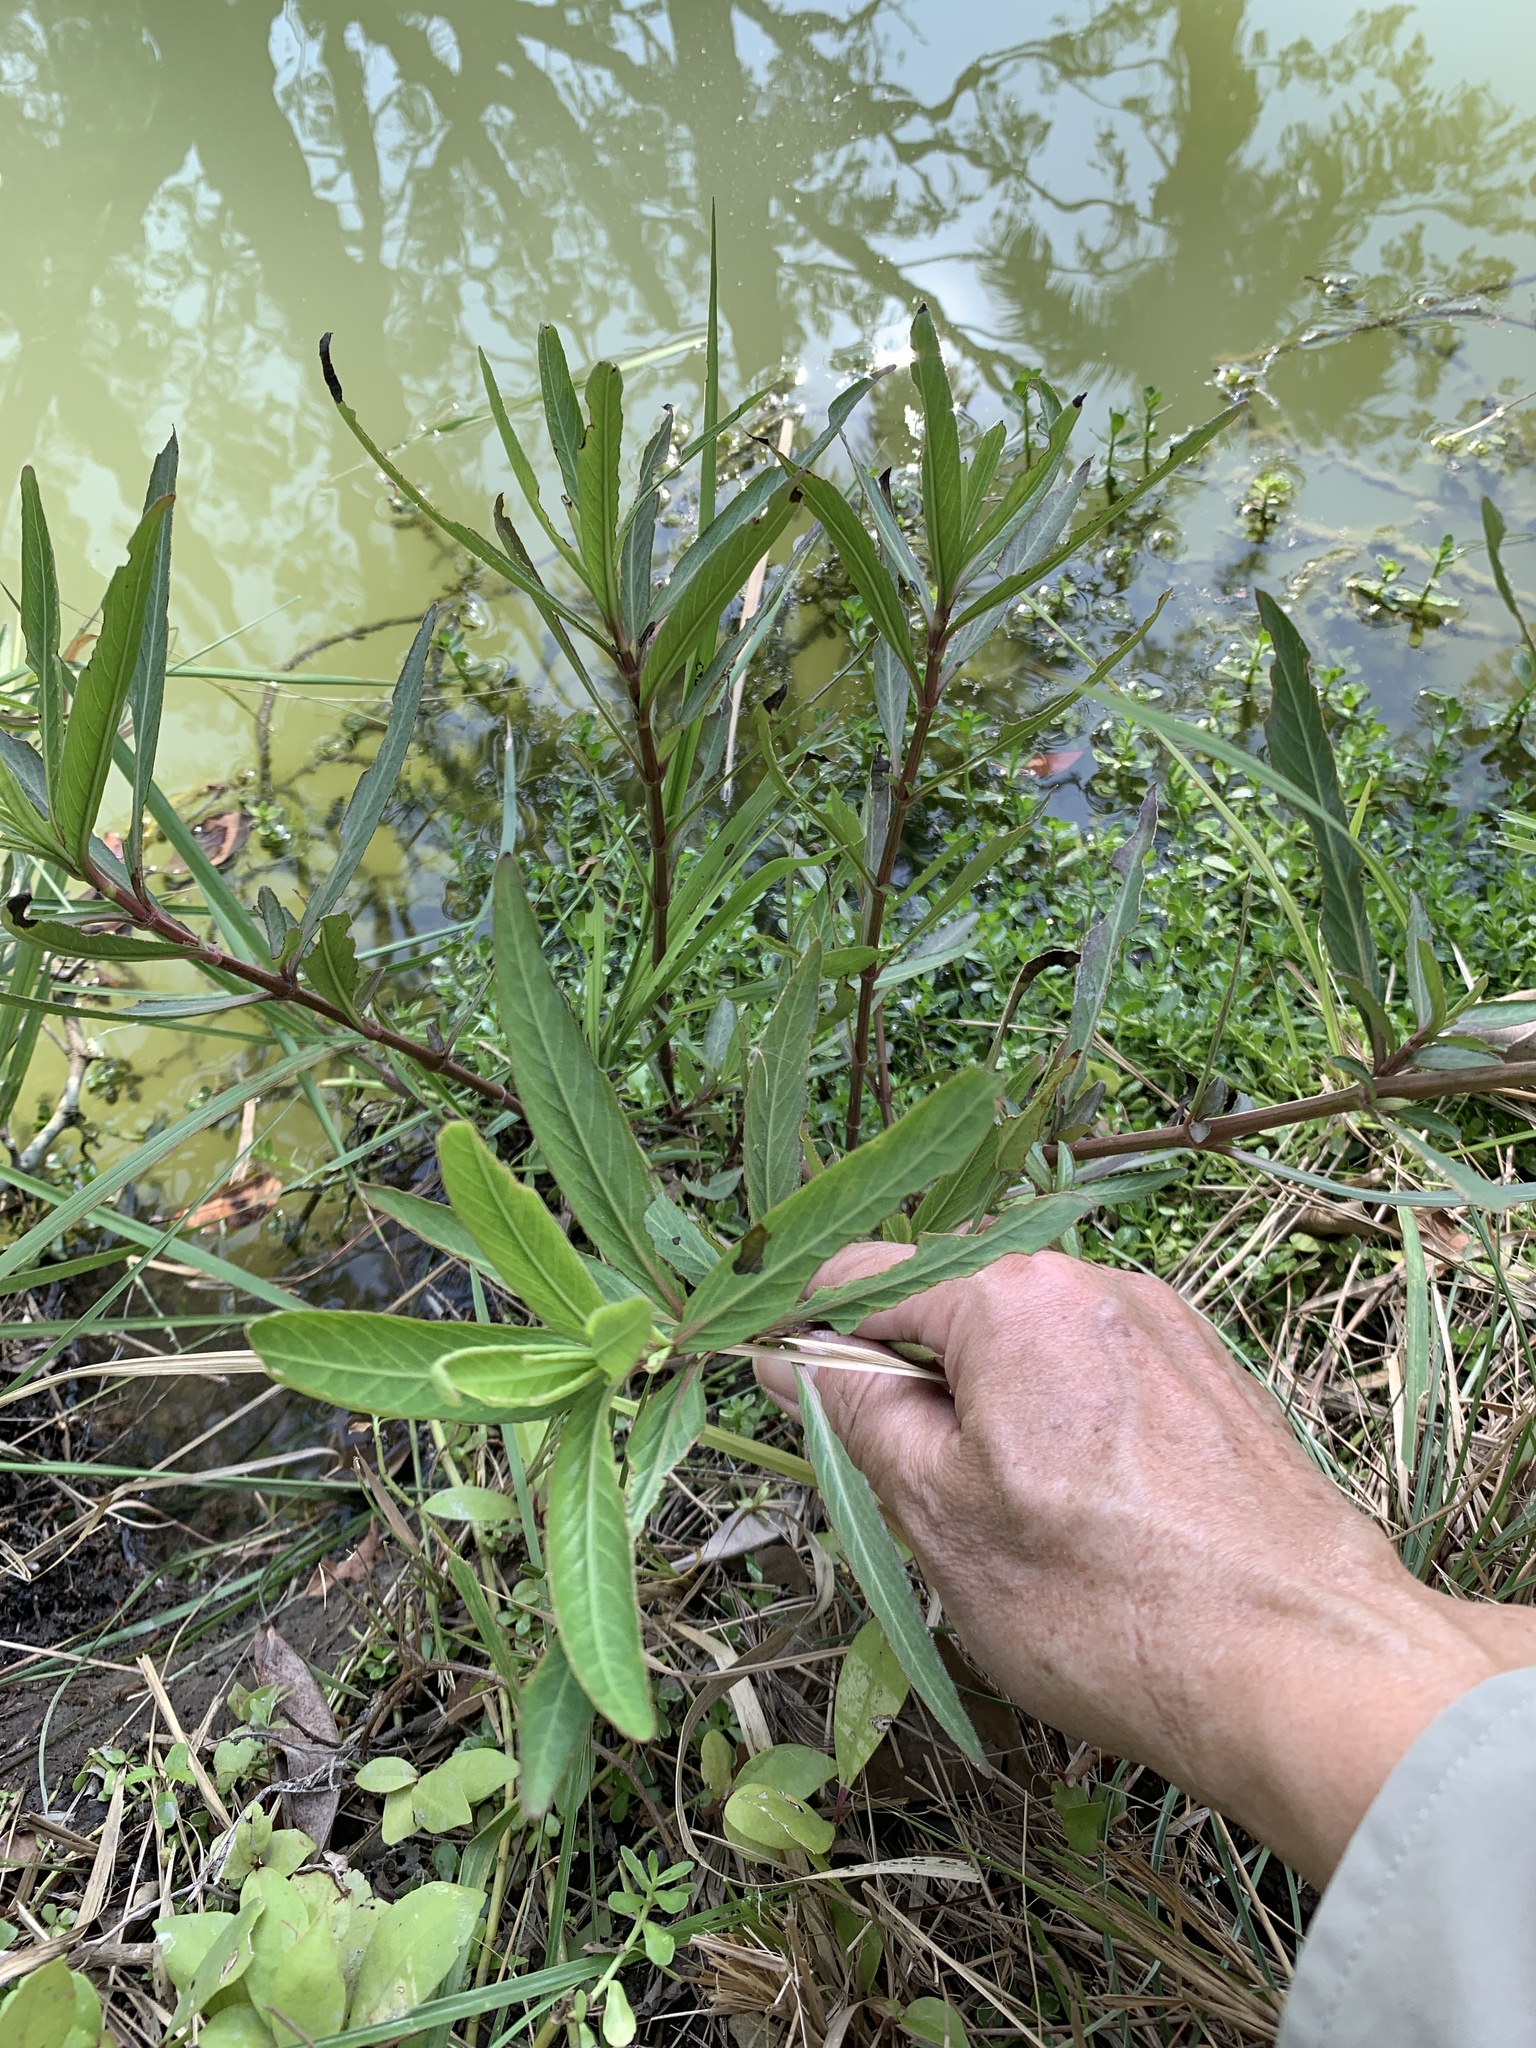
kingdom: Plantae
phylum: Tracheophyta
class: Magnoliopsida
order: Lamiales
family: Acanthaceae
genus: Hygrophila
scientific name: Hygrophila ringens
